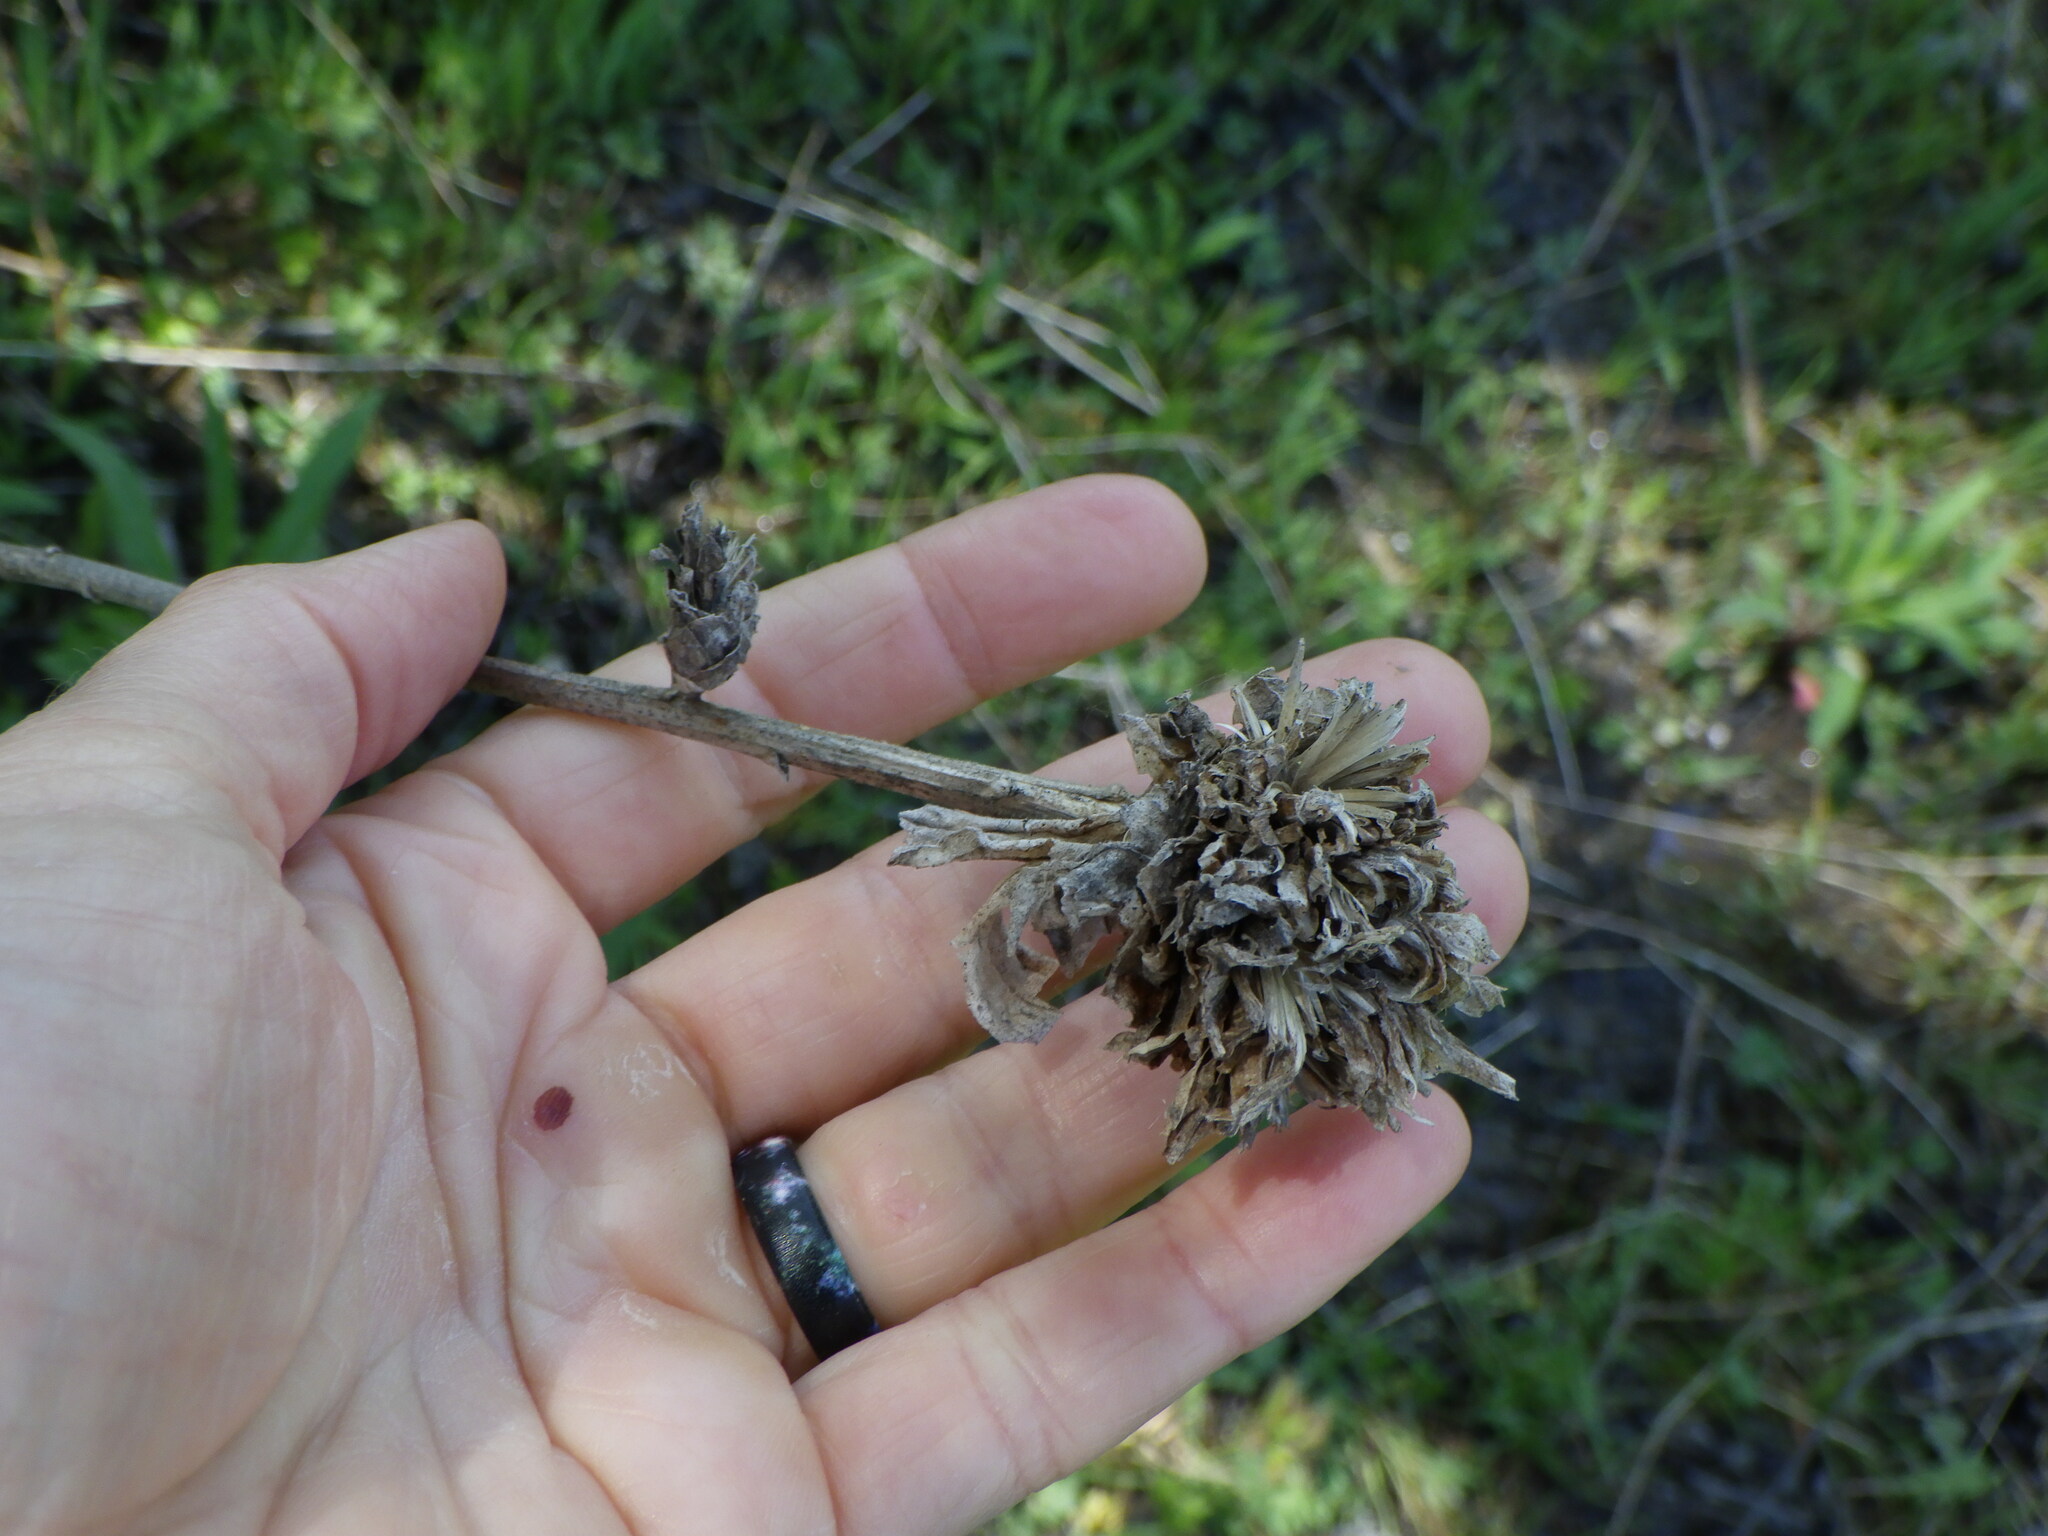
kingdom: Animalia
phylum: Arthropoda
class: Insecta
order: Diptera
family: Cecidomyiidae
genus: Rhopalomyia
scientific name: Rhopalomyia solidaginis
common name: Goldenrod bunch gall midge
